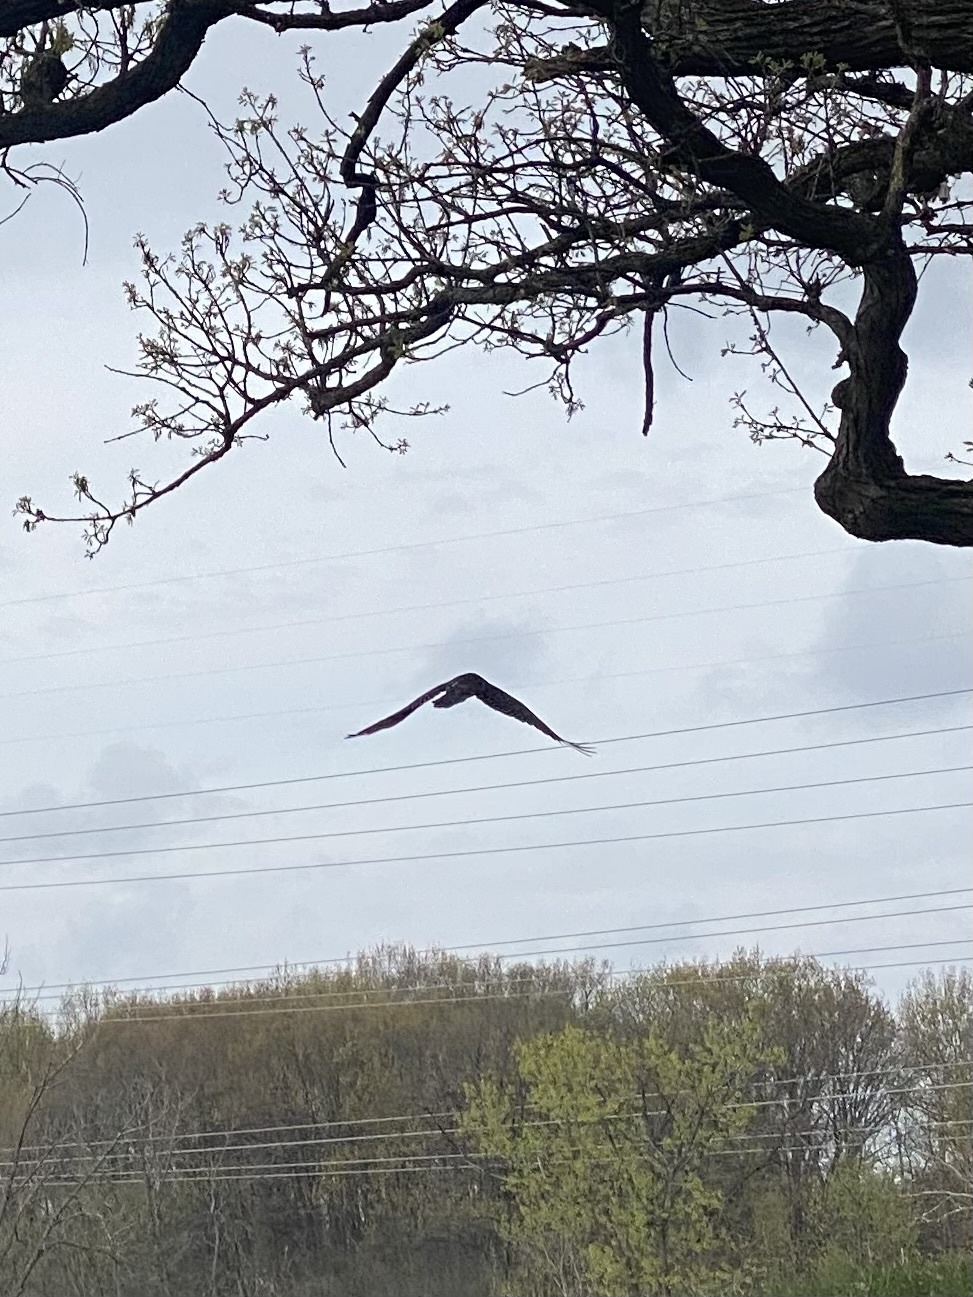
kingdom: Animalia
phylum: Chordata
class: Aves
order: Accipitriformes
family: Cathartidae
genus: Cathartes
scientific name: Cathartes aura
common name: Turkey vulture
